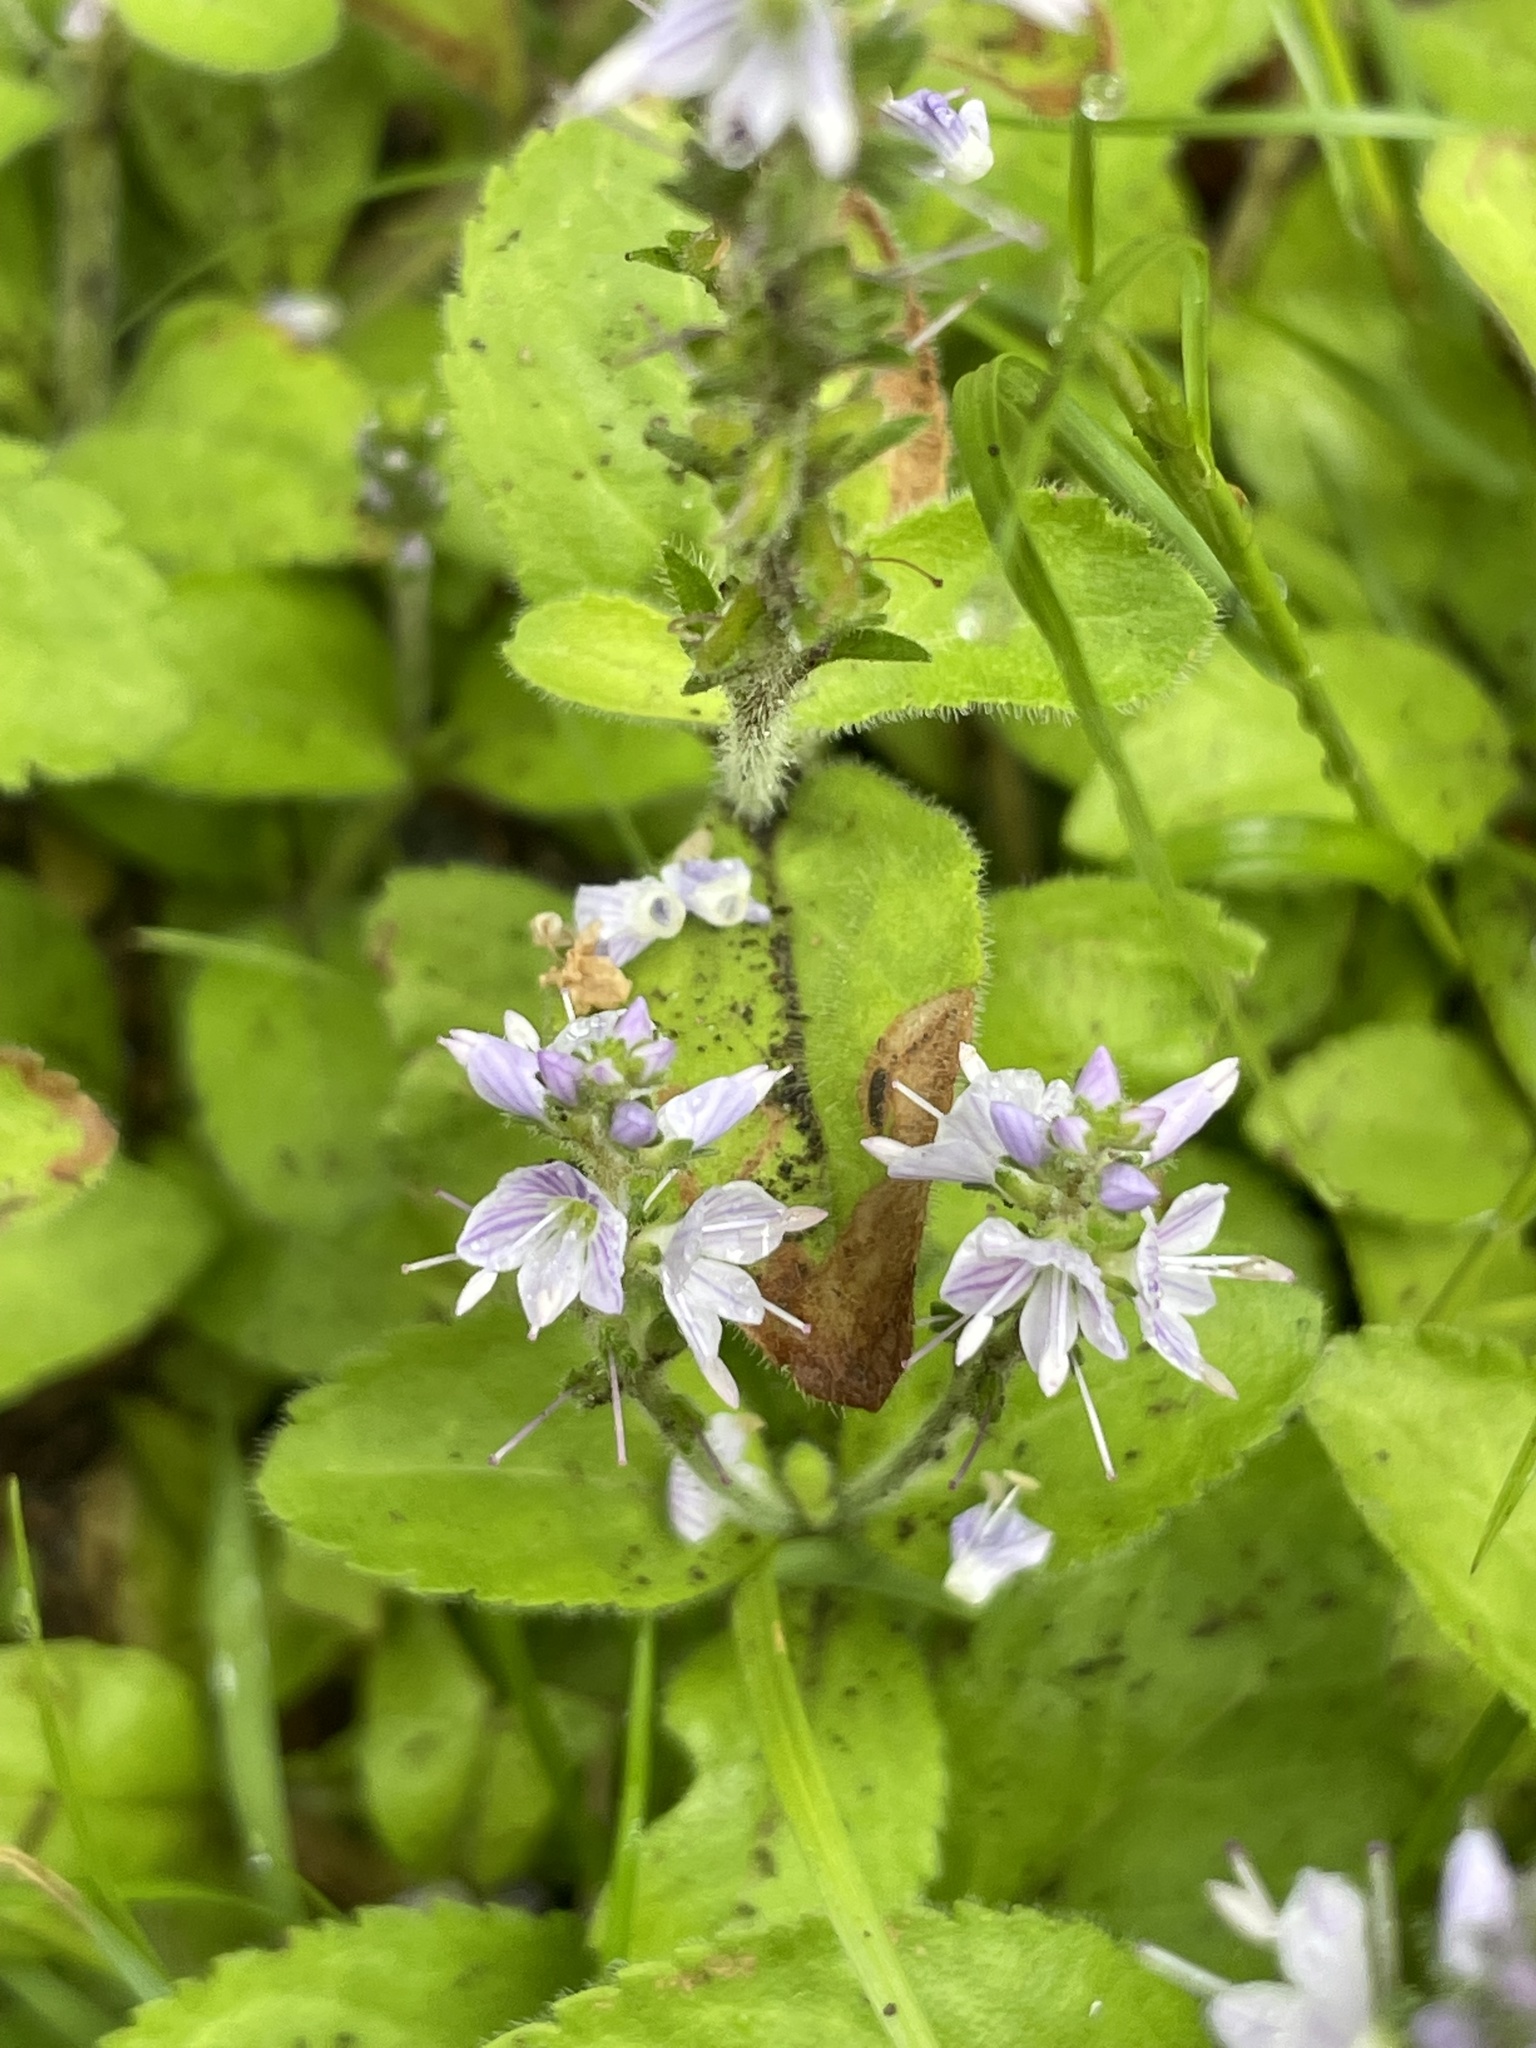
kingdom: Plantae
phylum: Tracheophyta
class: Magnoliopsida
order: Lamiales
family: Plantaginaceae
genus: Veronica
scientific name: Veronica officinalis
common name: Common speedwell
